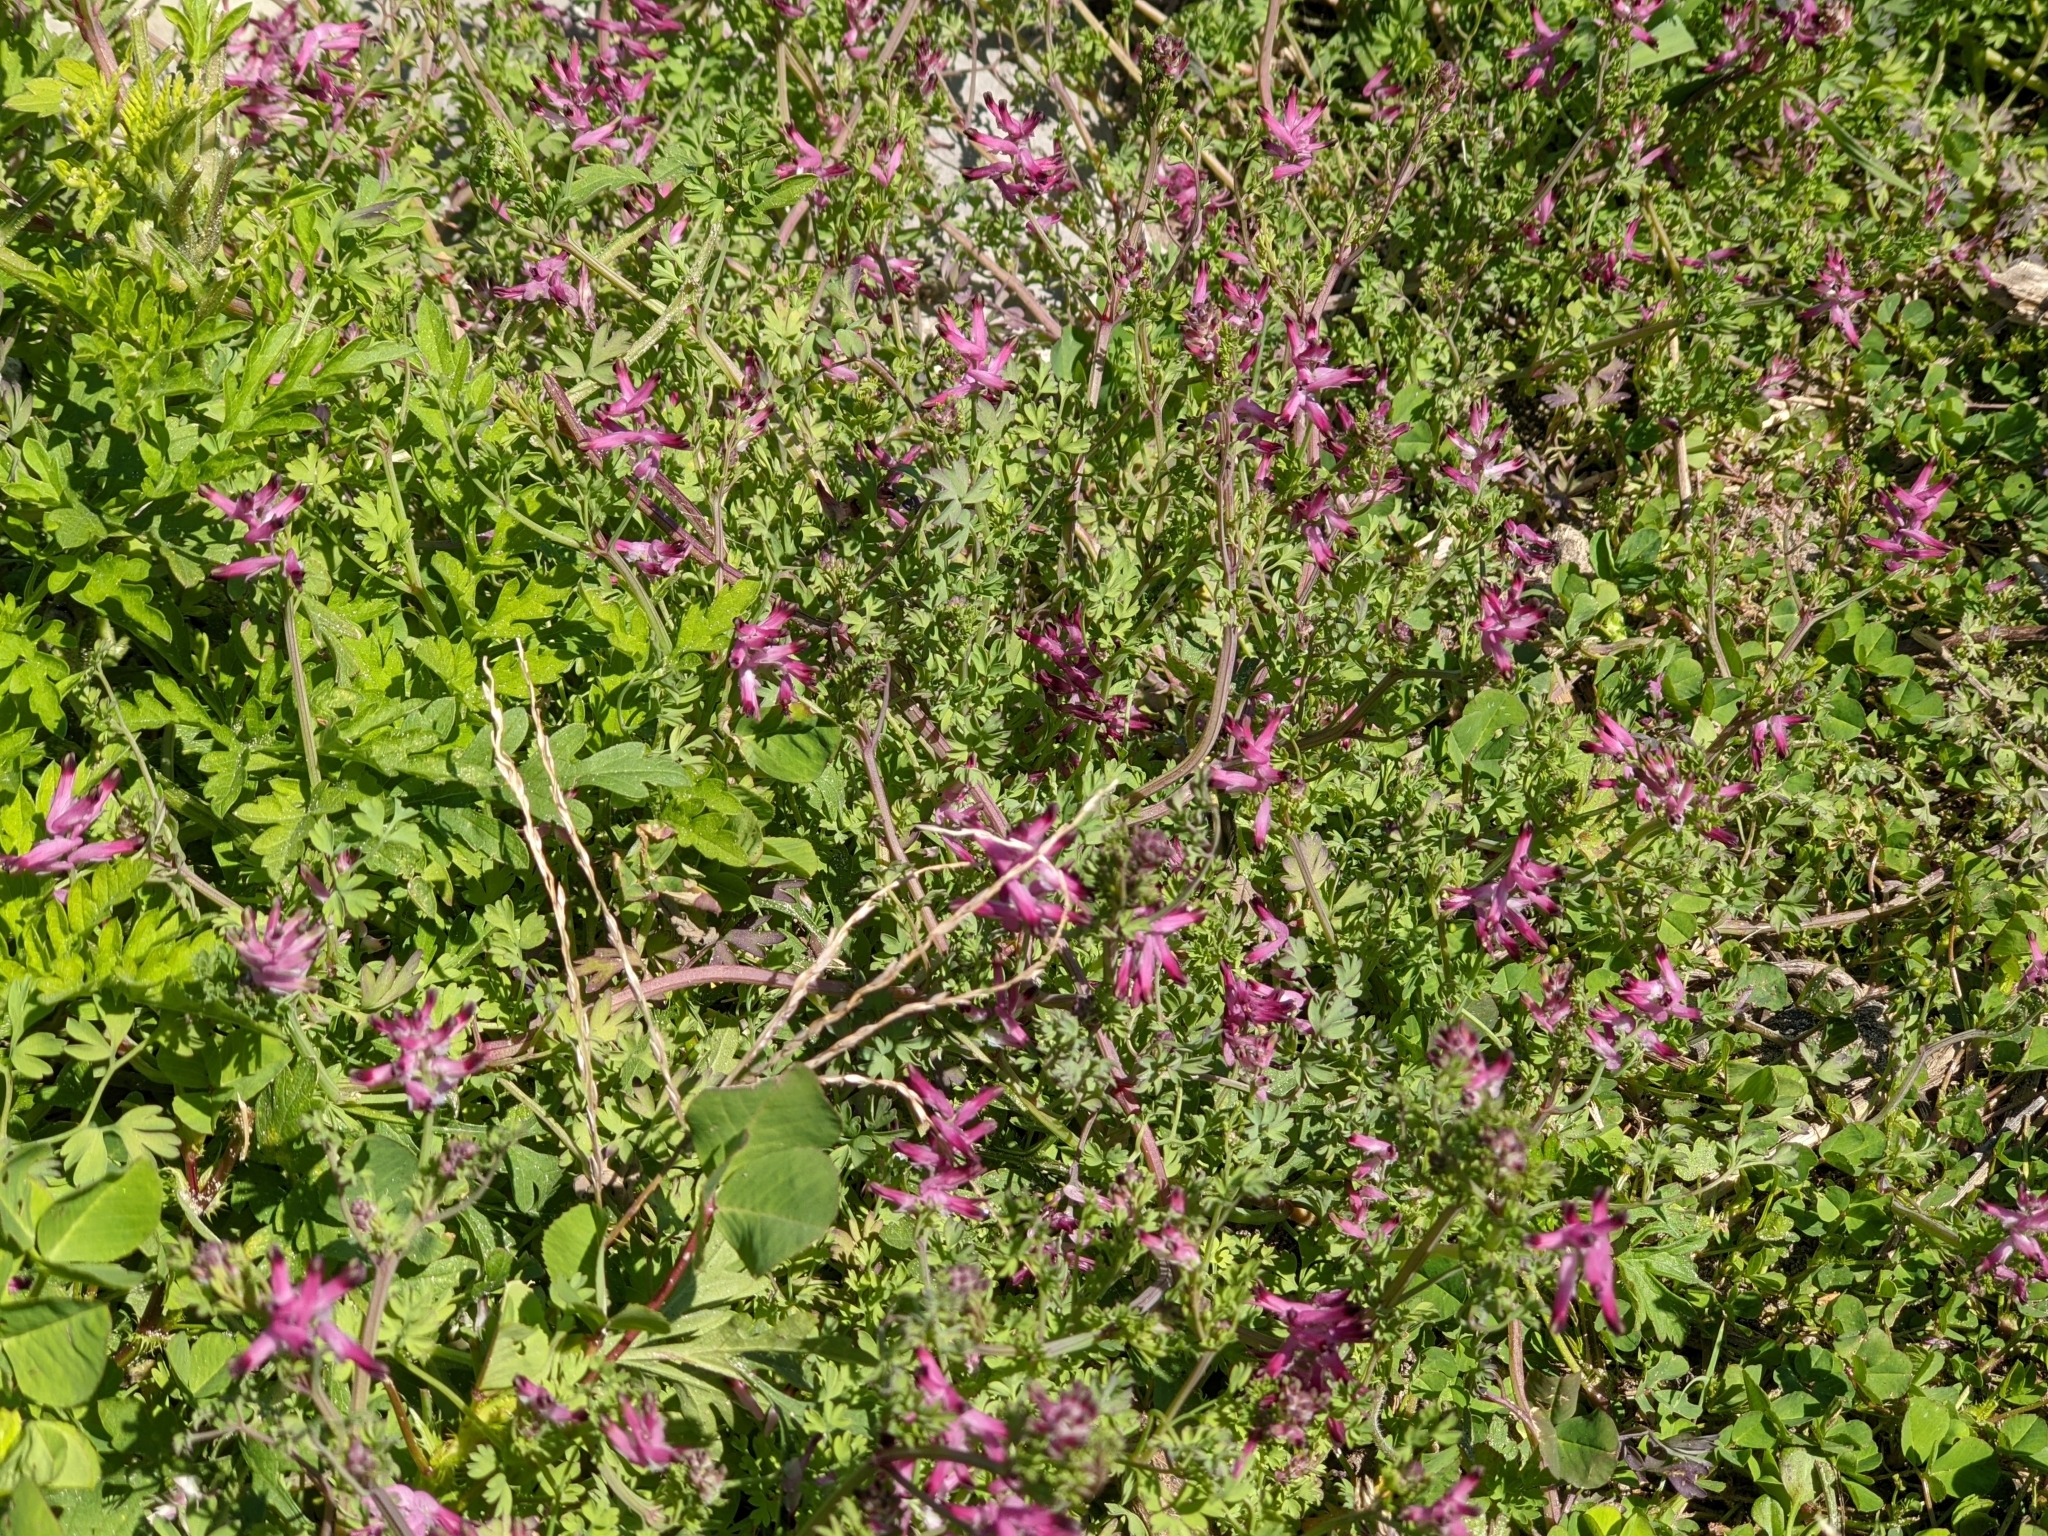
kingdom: Plantae
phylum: Tracheophyta
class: Magnoliopsida
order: Ranunculales
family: Papaveraceae
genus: Fumaria
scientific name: Fumaria muralis
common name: Common ramping-fumitory
